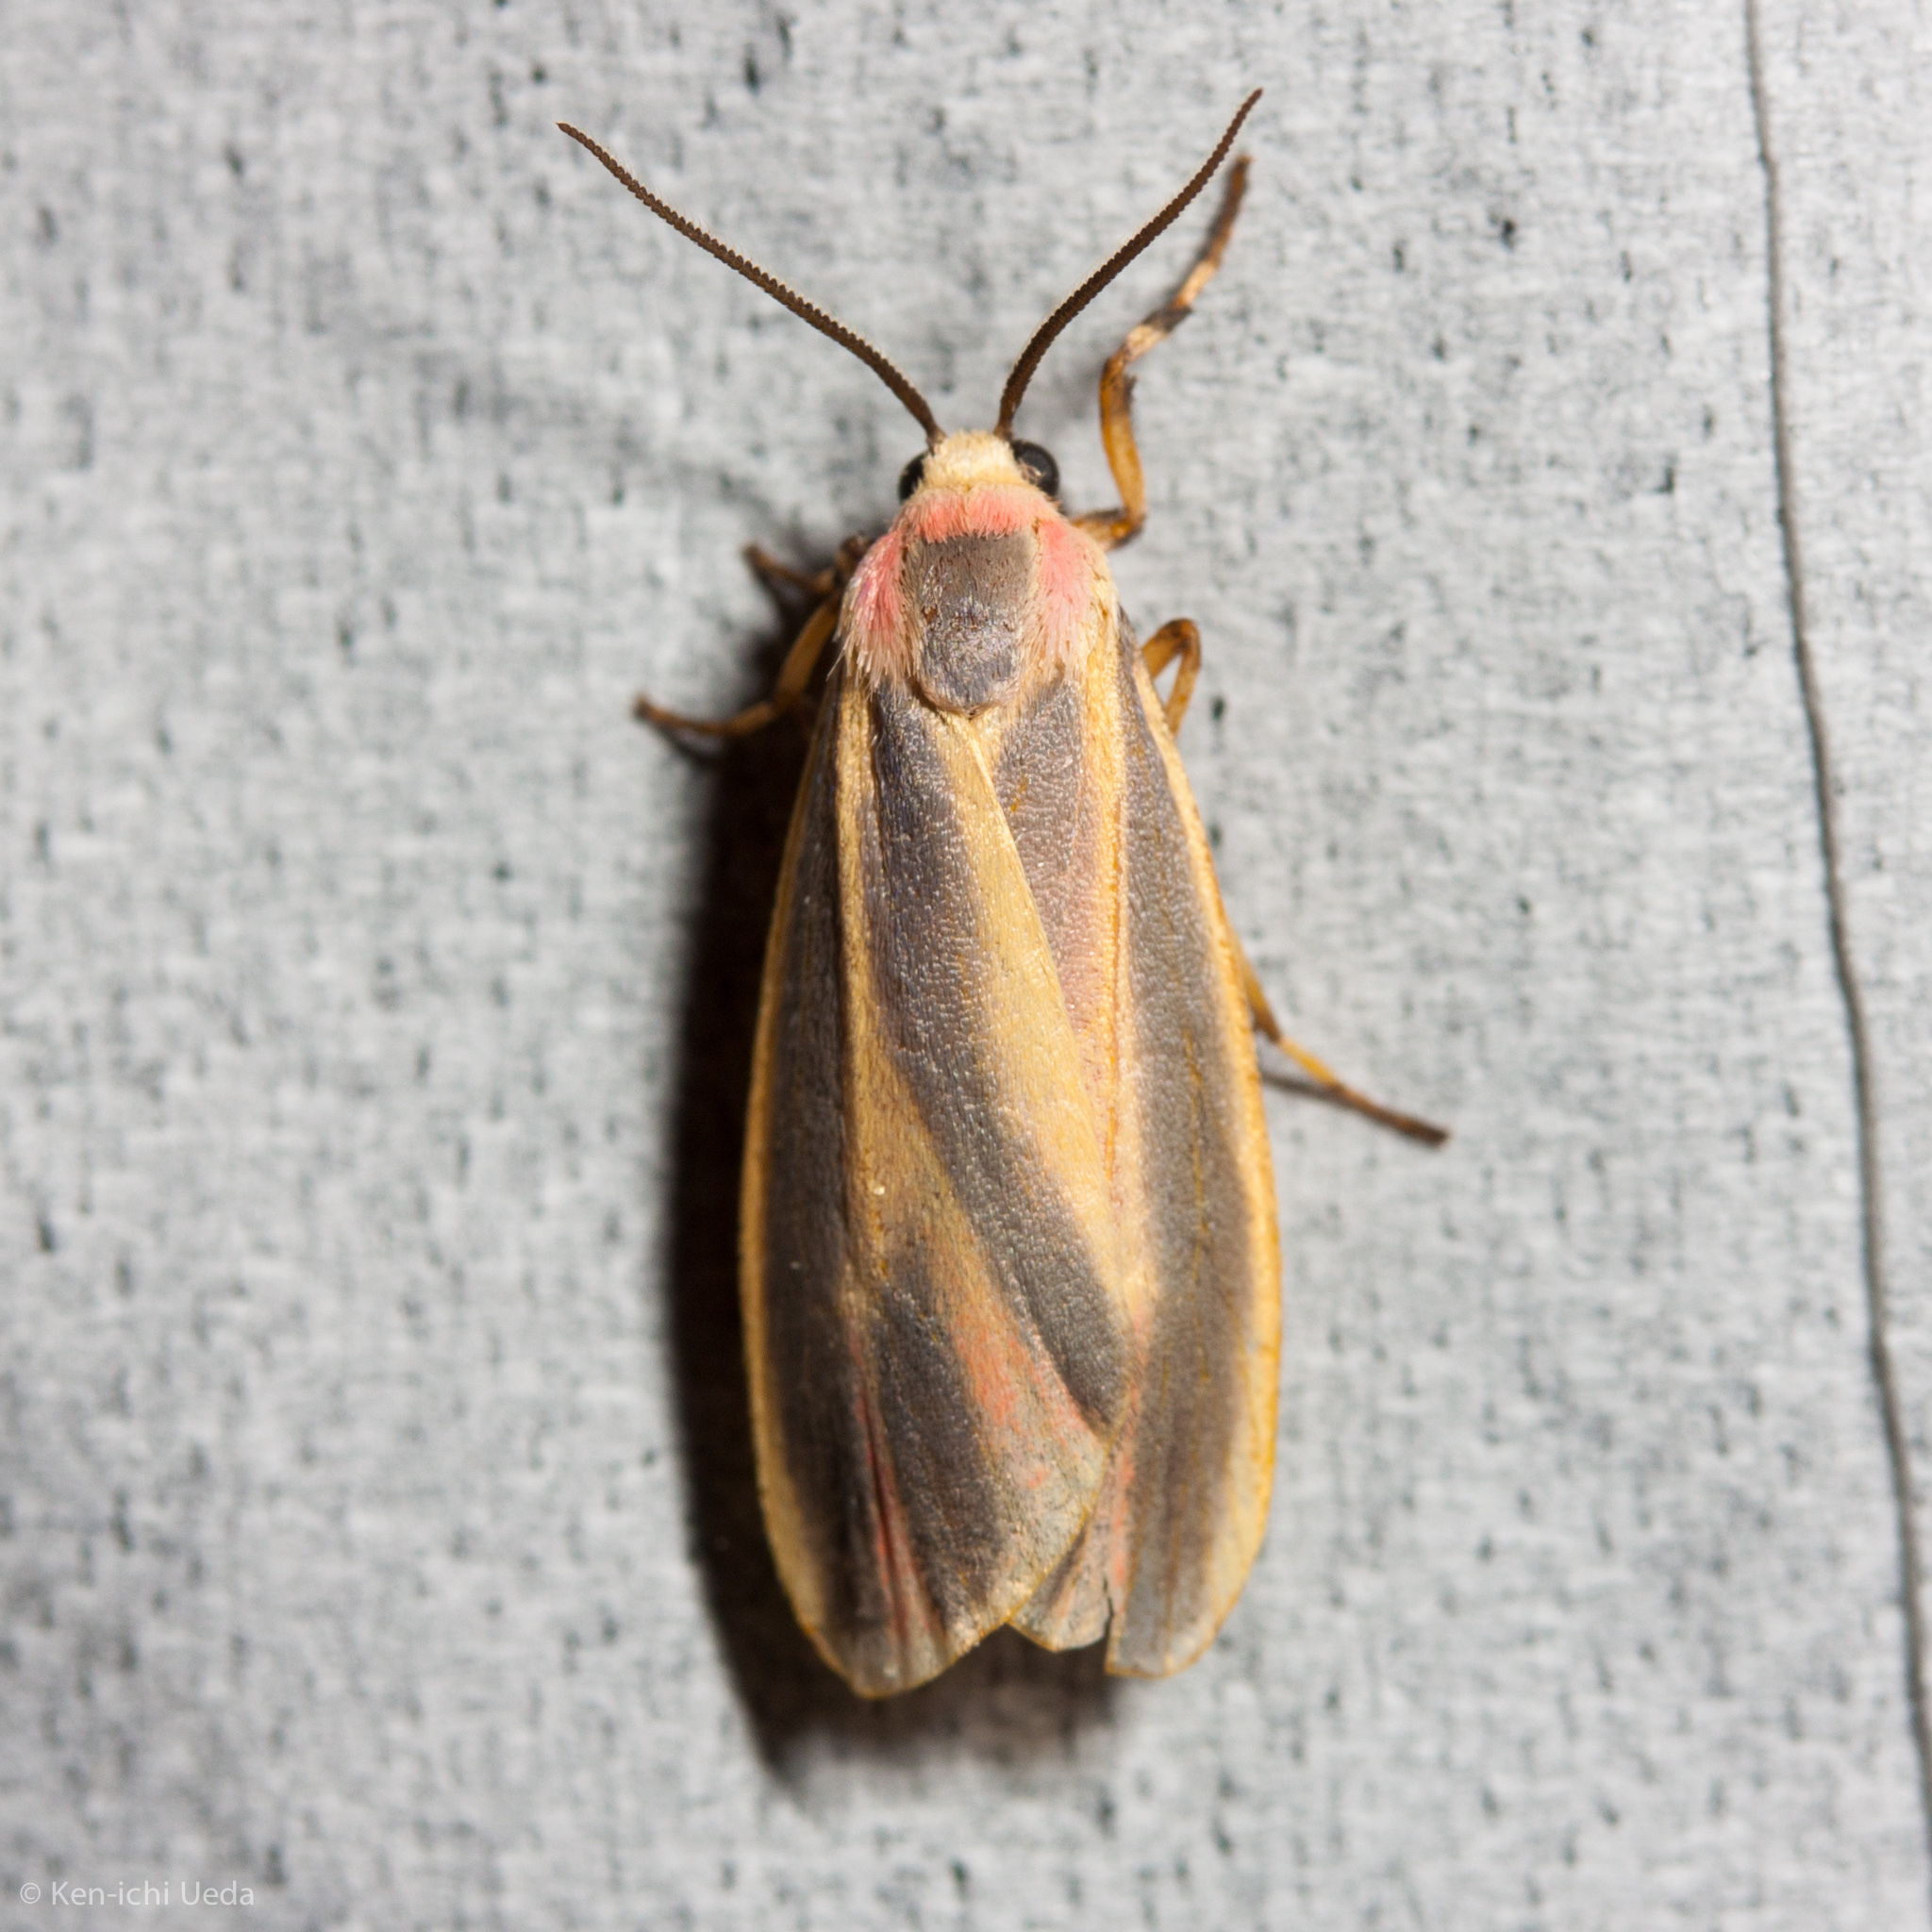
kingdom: Animalia
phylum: Arthropoda
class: Insecta
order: Lepidoptera
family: Erebidae
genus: Hypoprepia
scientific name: Hypoprepia fucosa
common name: Painted lichen moth
